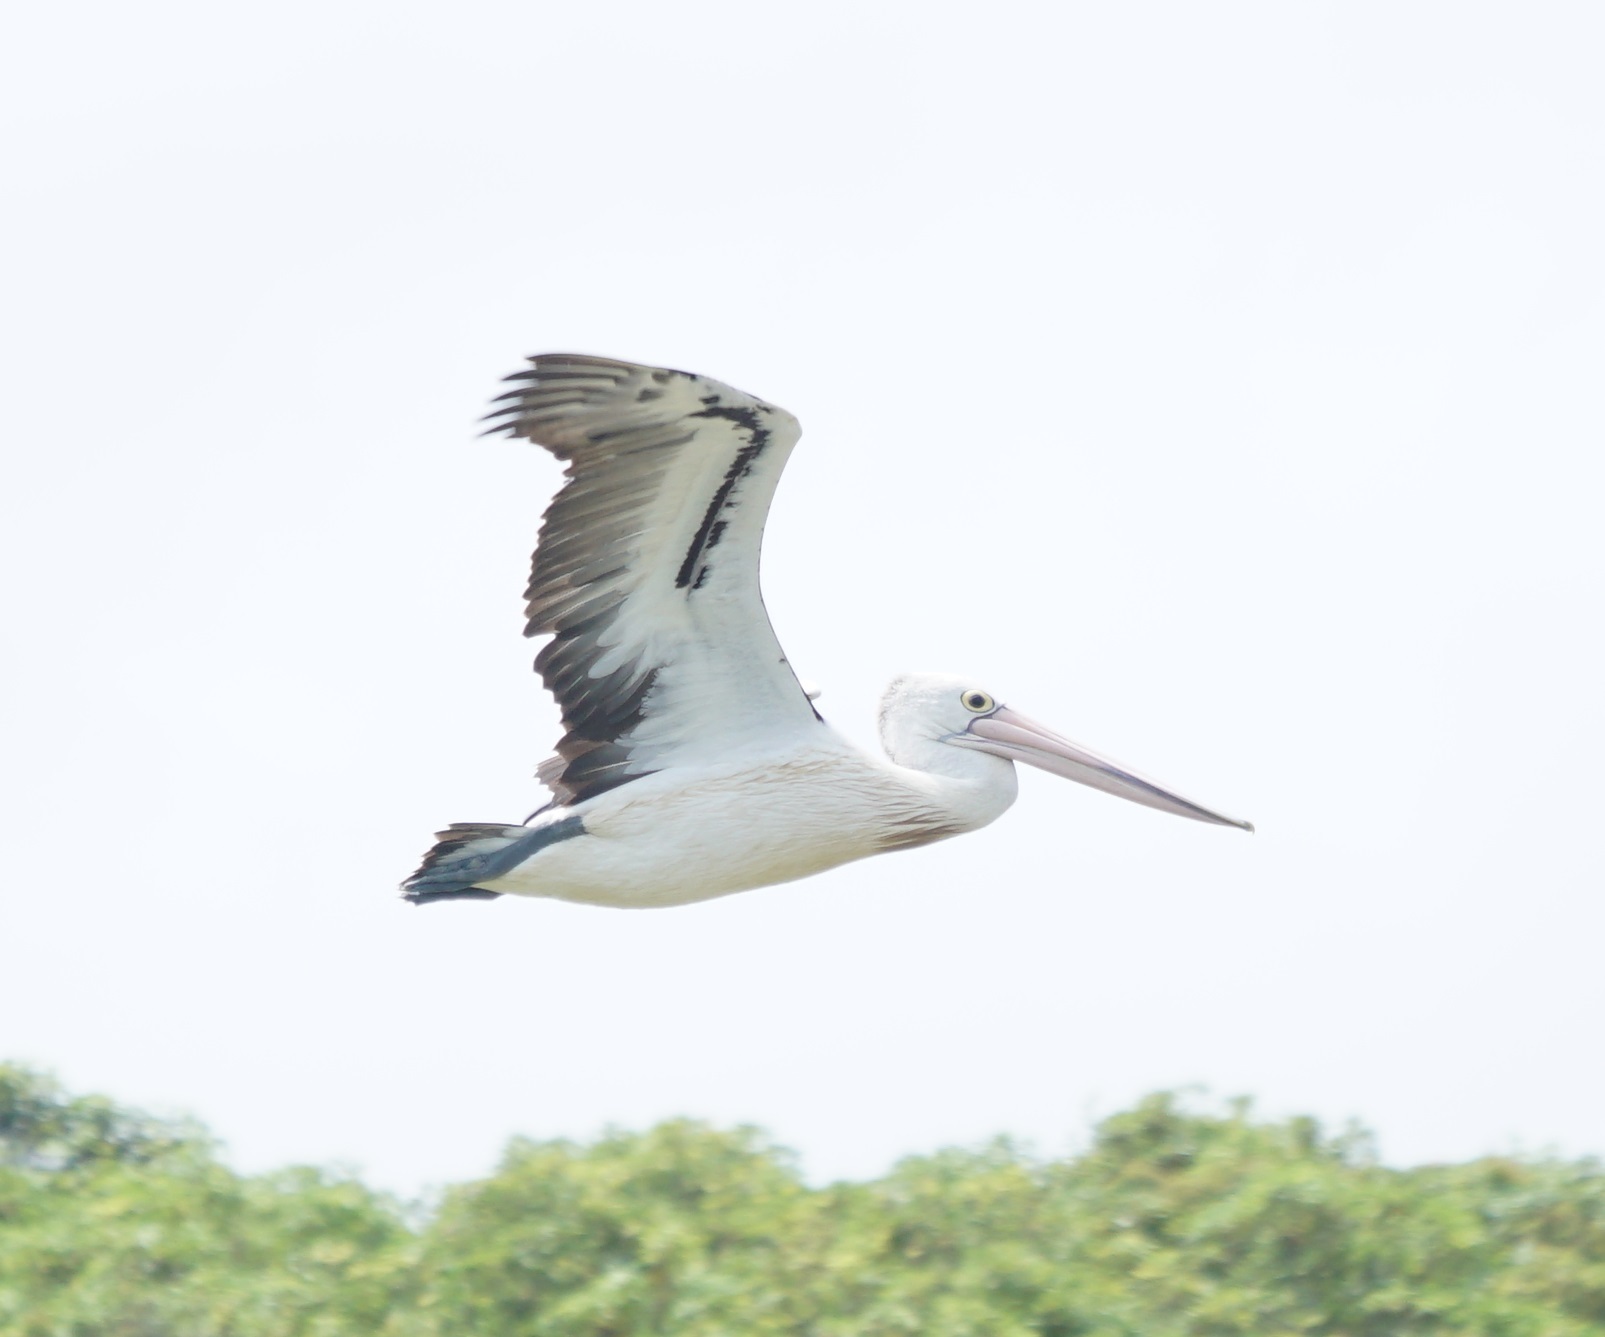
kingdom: Animalia
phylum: Chordata
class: Aves
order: Pelecaniformes
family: Pelecanidae
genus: Pelecanus
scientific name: Pelecanus conspicillatus
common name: Australian pelican
